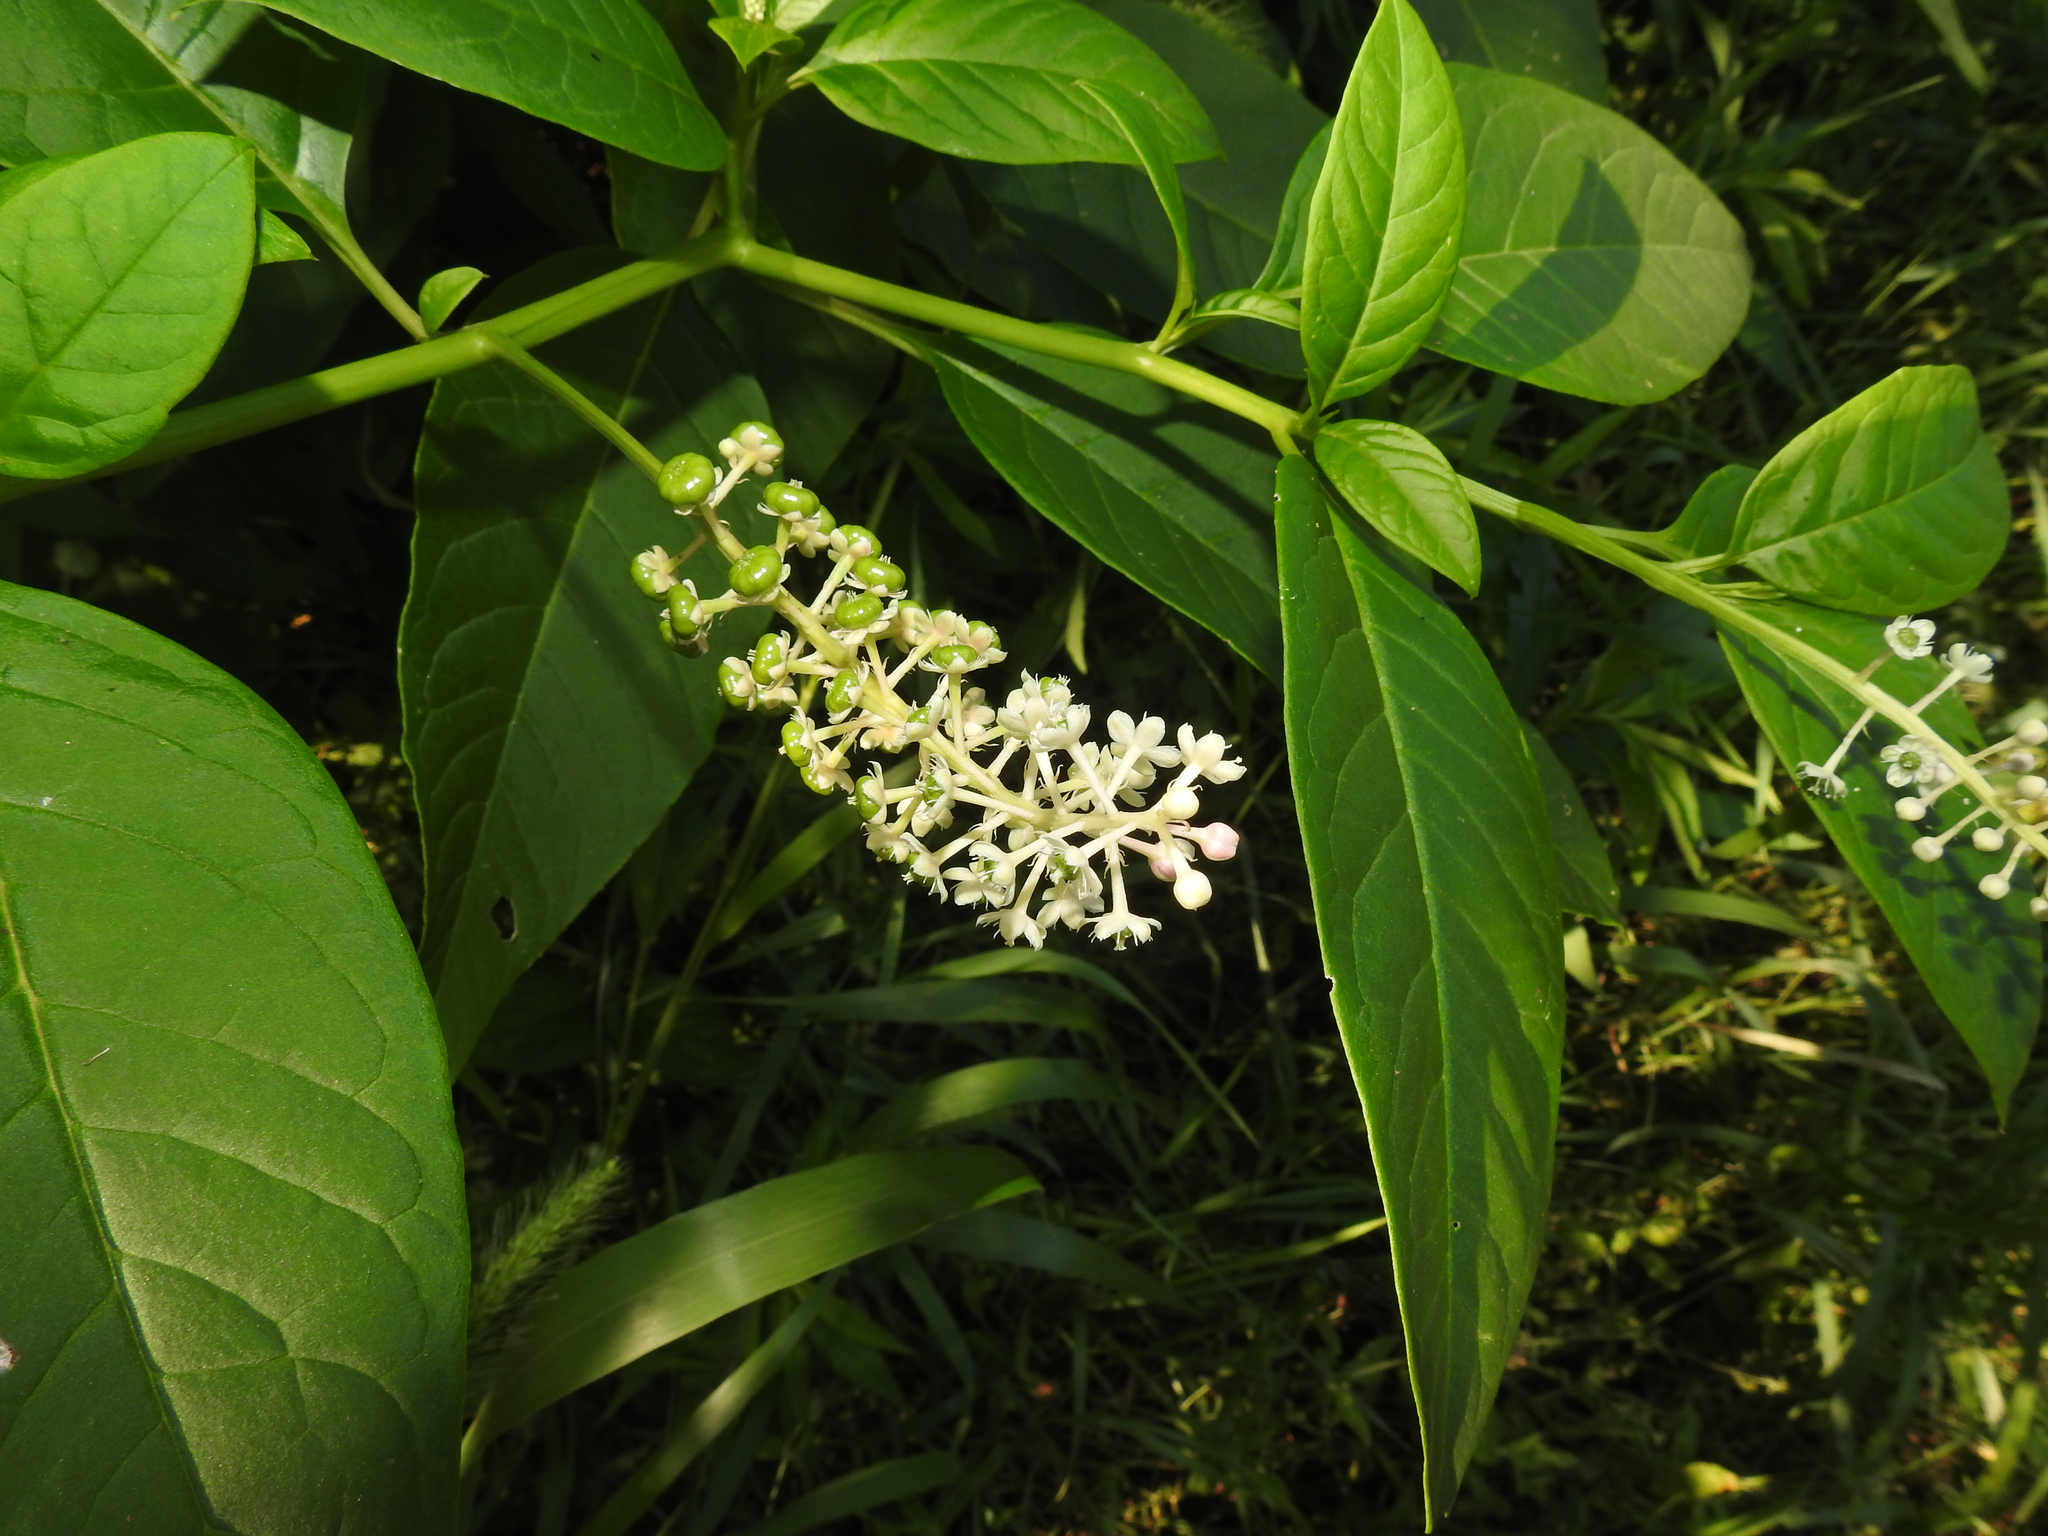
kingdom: Plantae
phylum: Tracheophyta
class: Magnoliopsida
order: Caryophyllales
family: Phytolaccaceae
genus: Phytolacca
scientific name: Phytolacca americana
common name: American pokeweed
